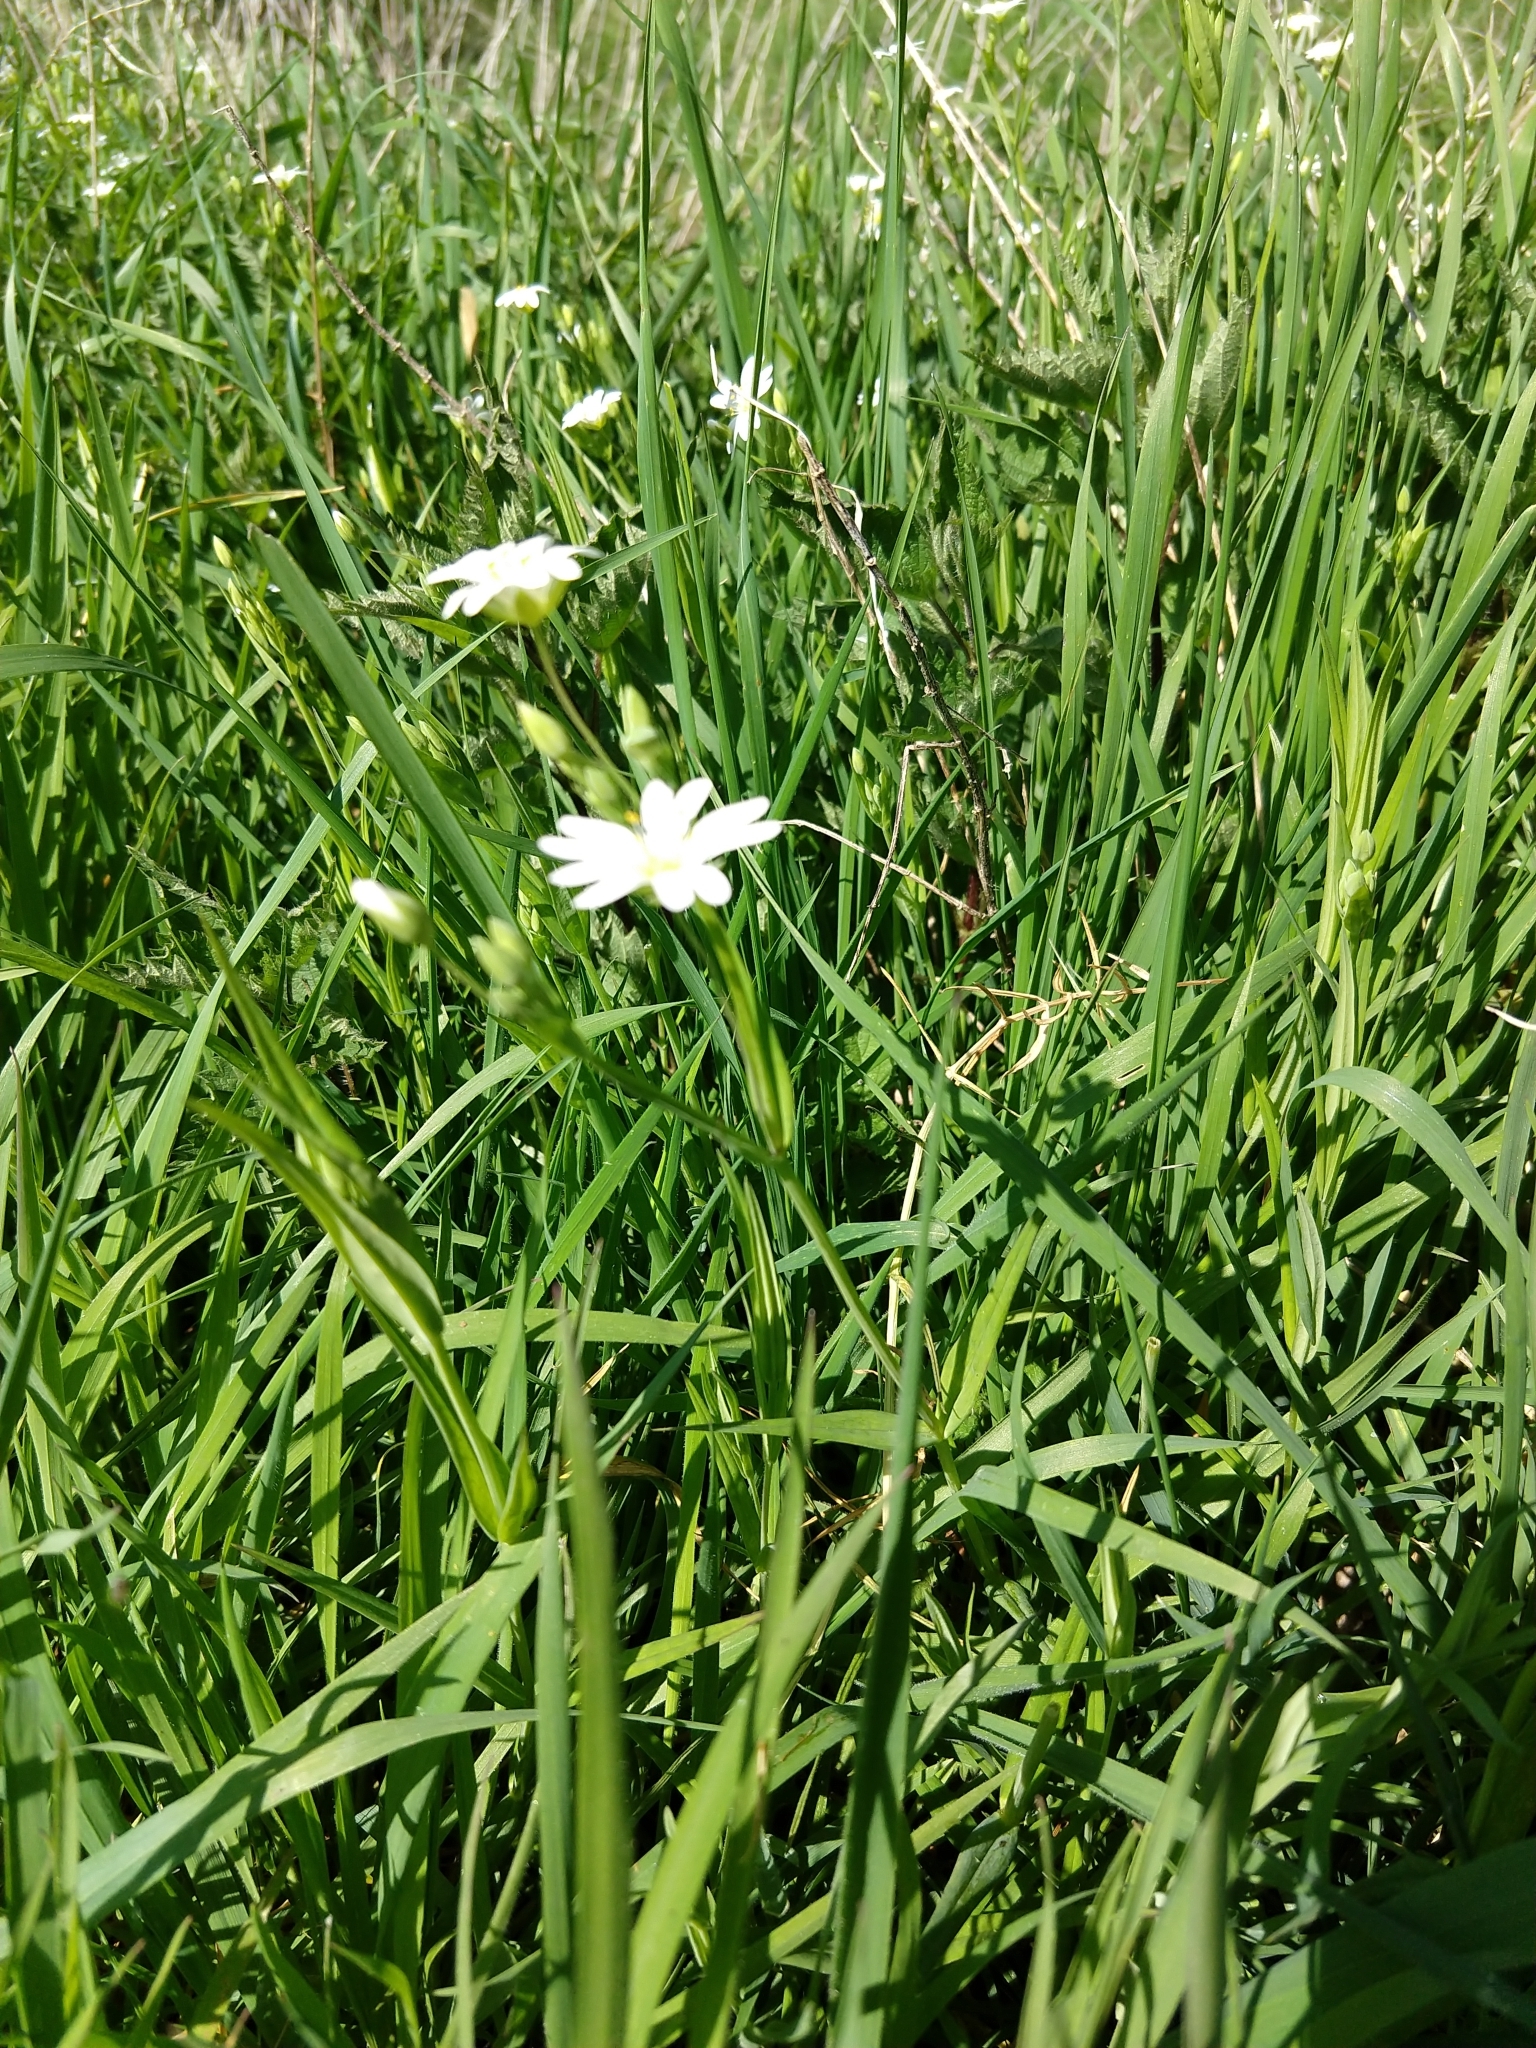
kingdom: Plantae
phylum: Tracheophyta
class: Magnoliopsida
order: Caryophyllales
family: Caryophyllaceae
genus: Rabelera
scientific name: Rabelera holostea
